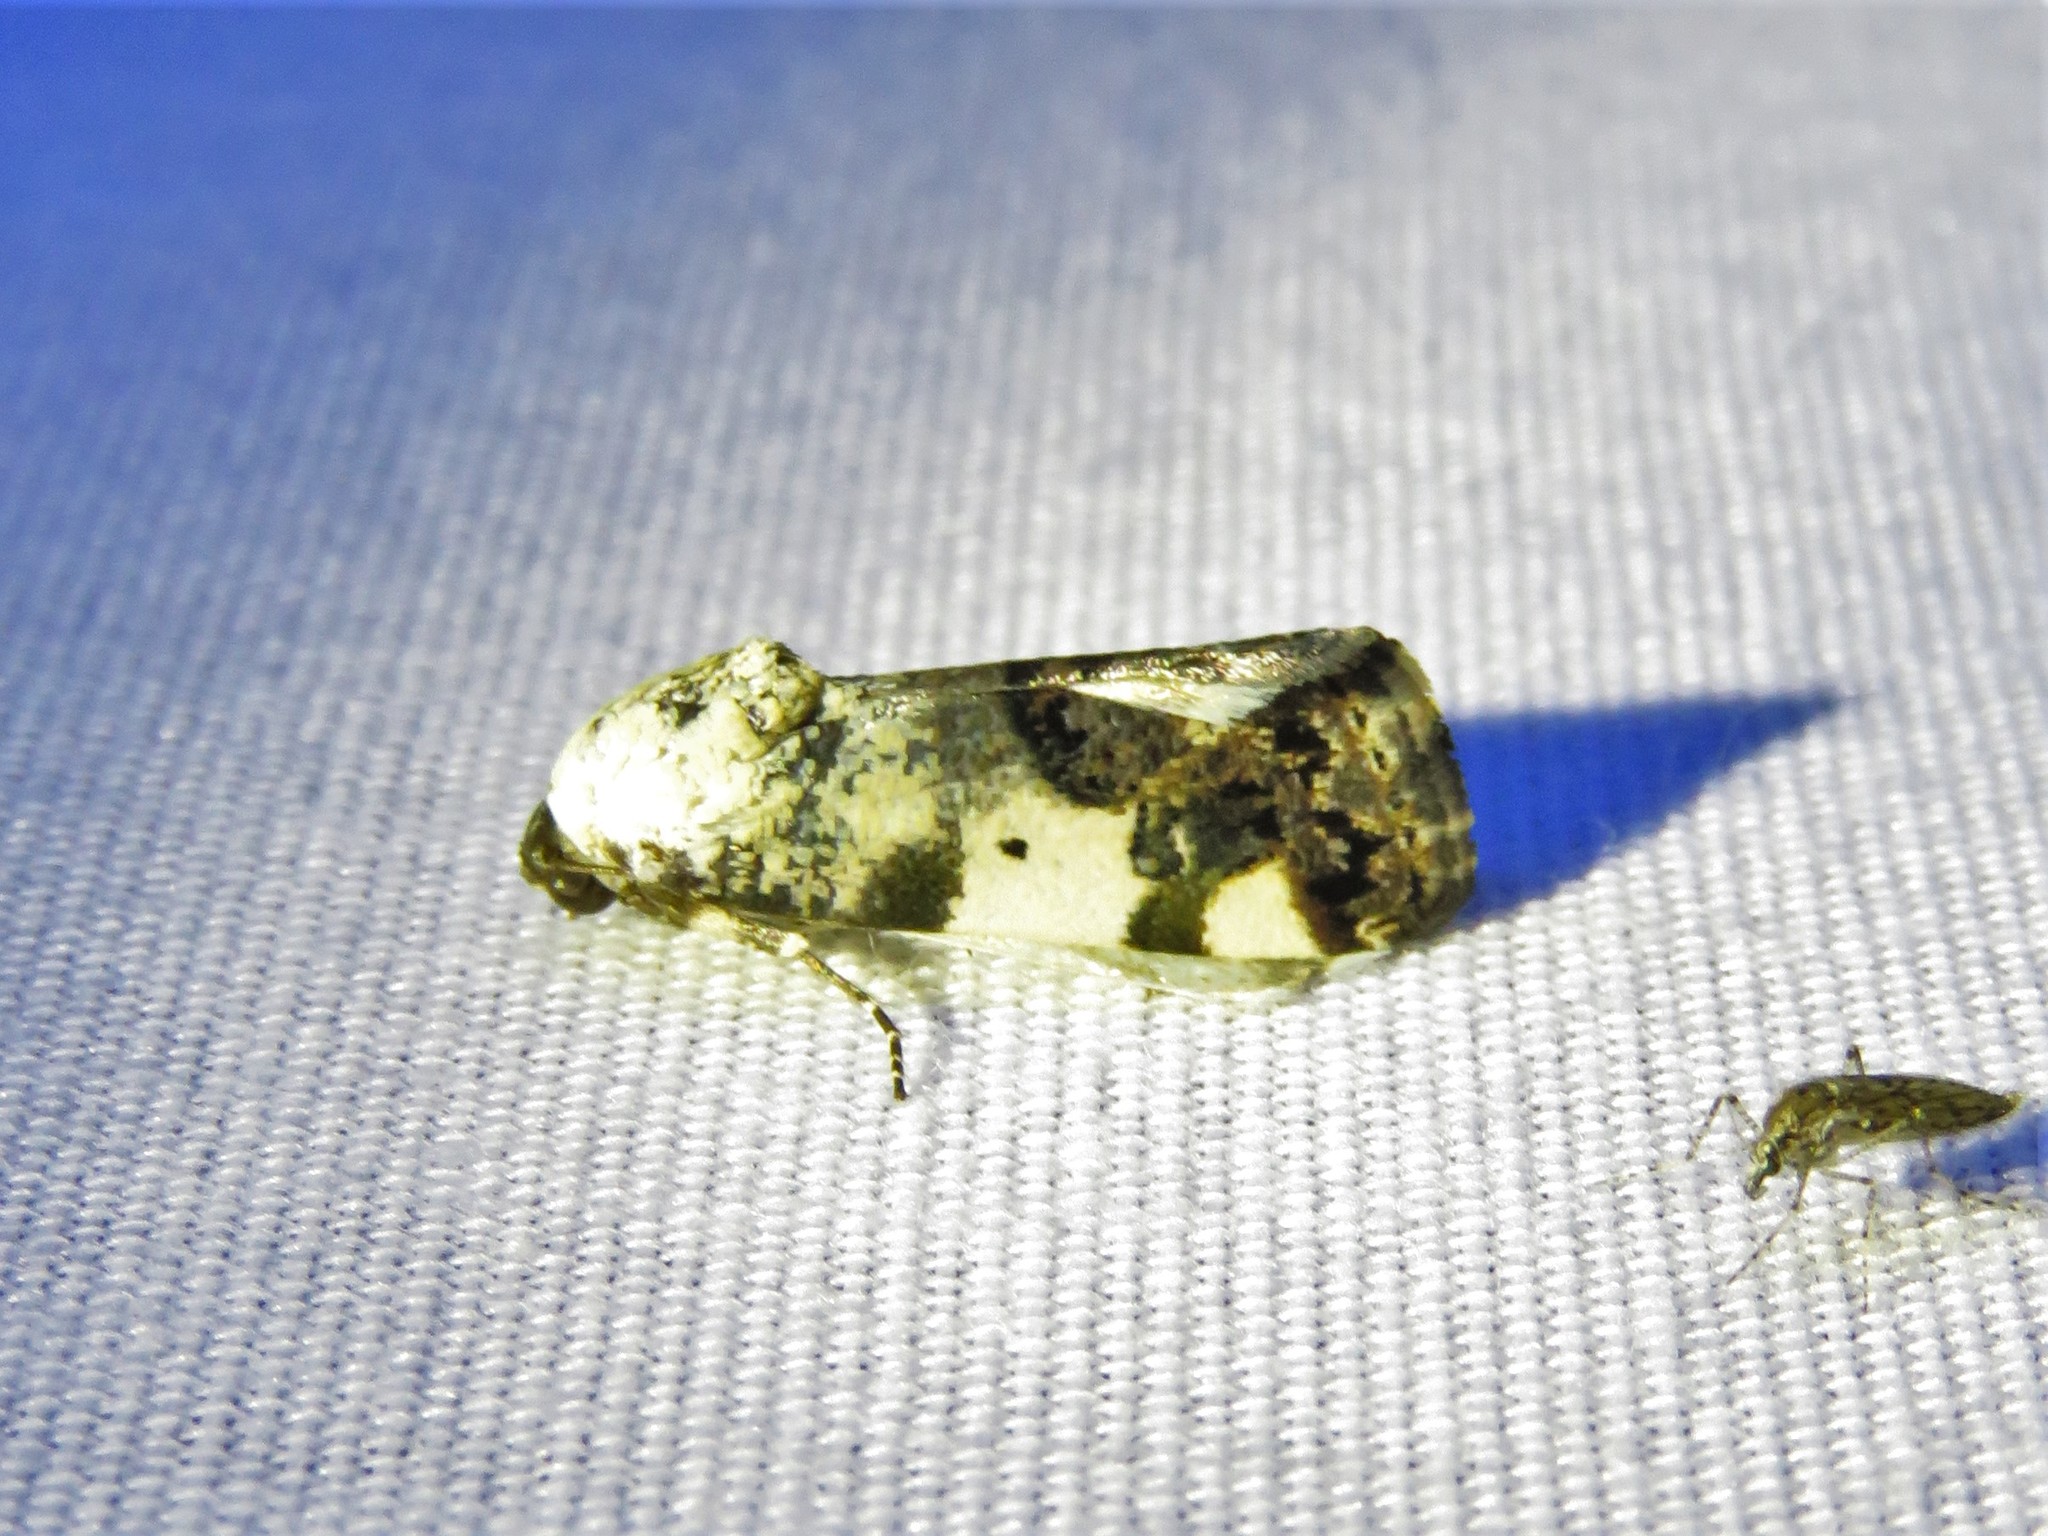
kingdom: Animalia
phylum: Arthropoda
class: Insecta
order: Lepidoptera
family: Noctuidae
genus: Acontia
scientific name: Acontia aprica
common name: Nun
